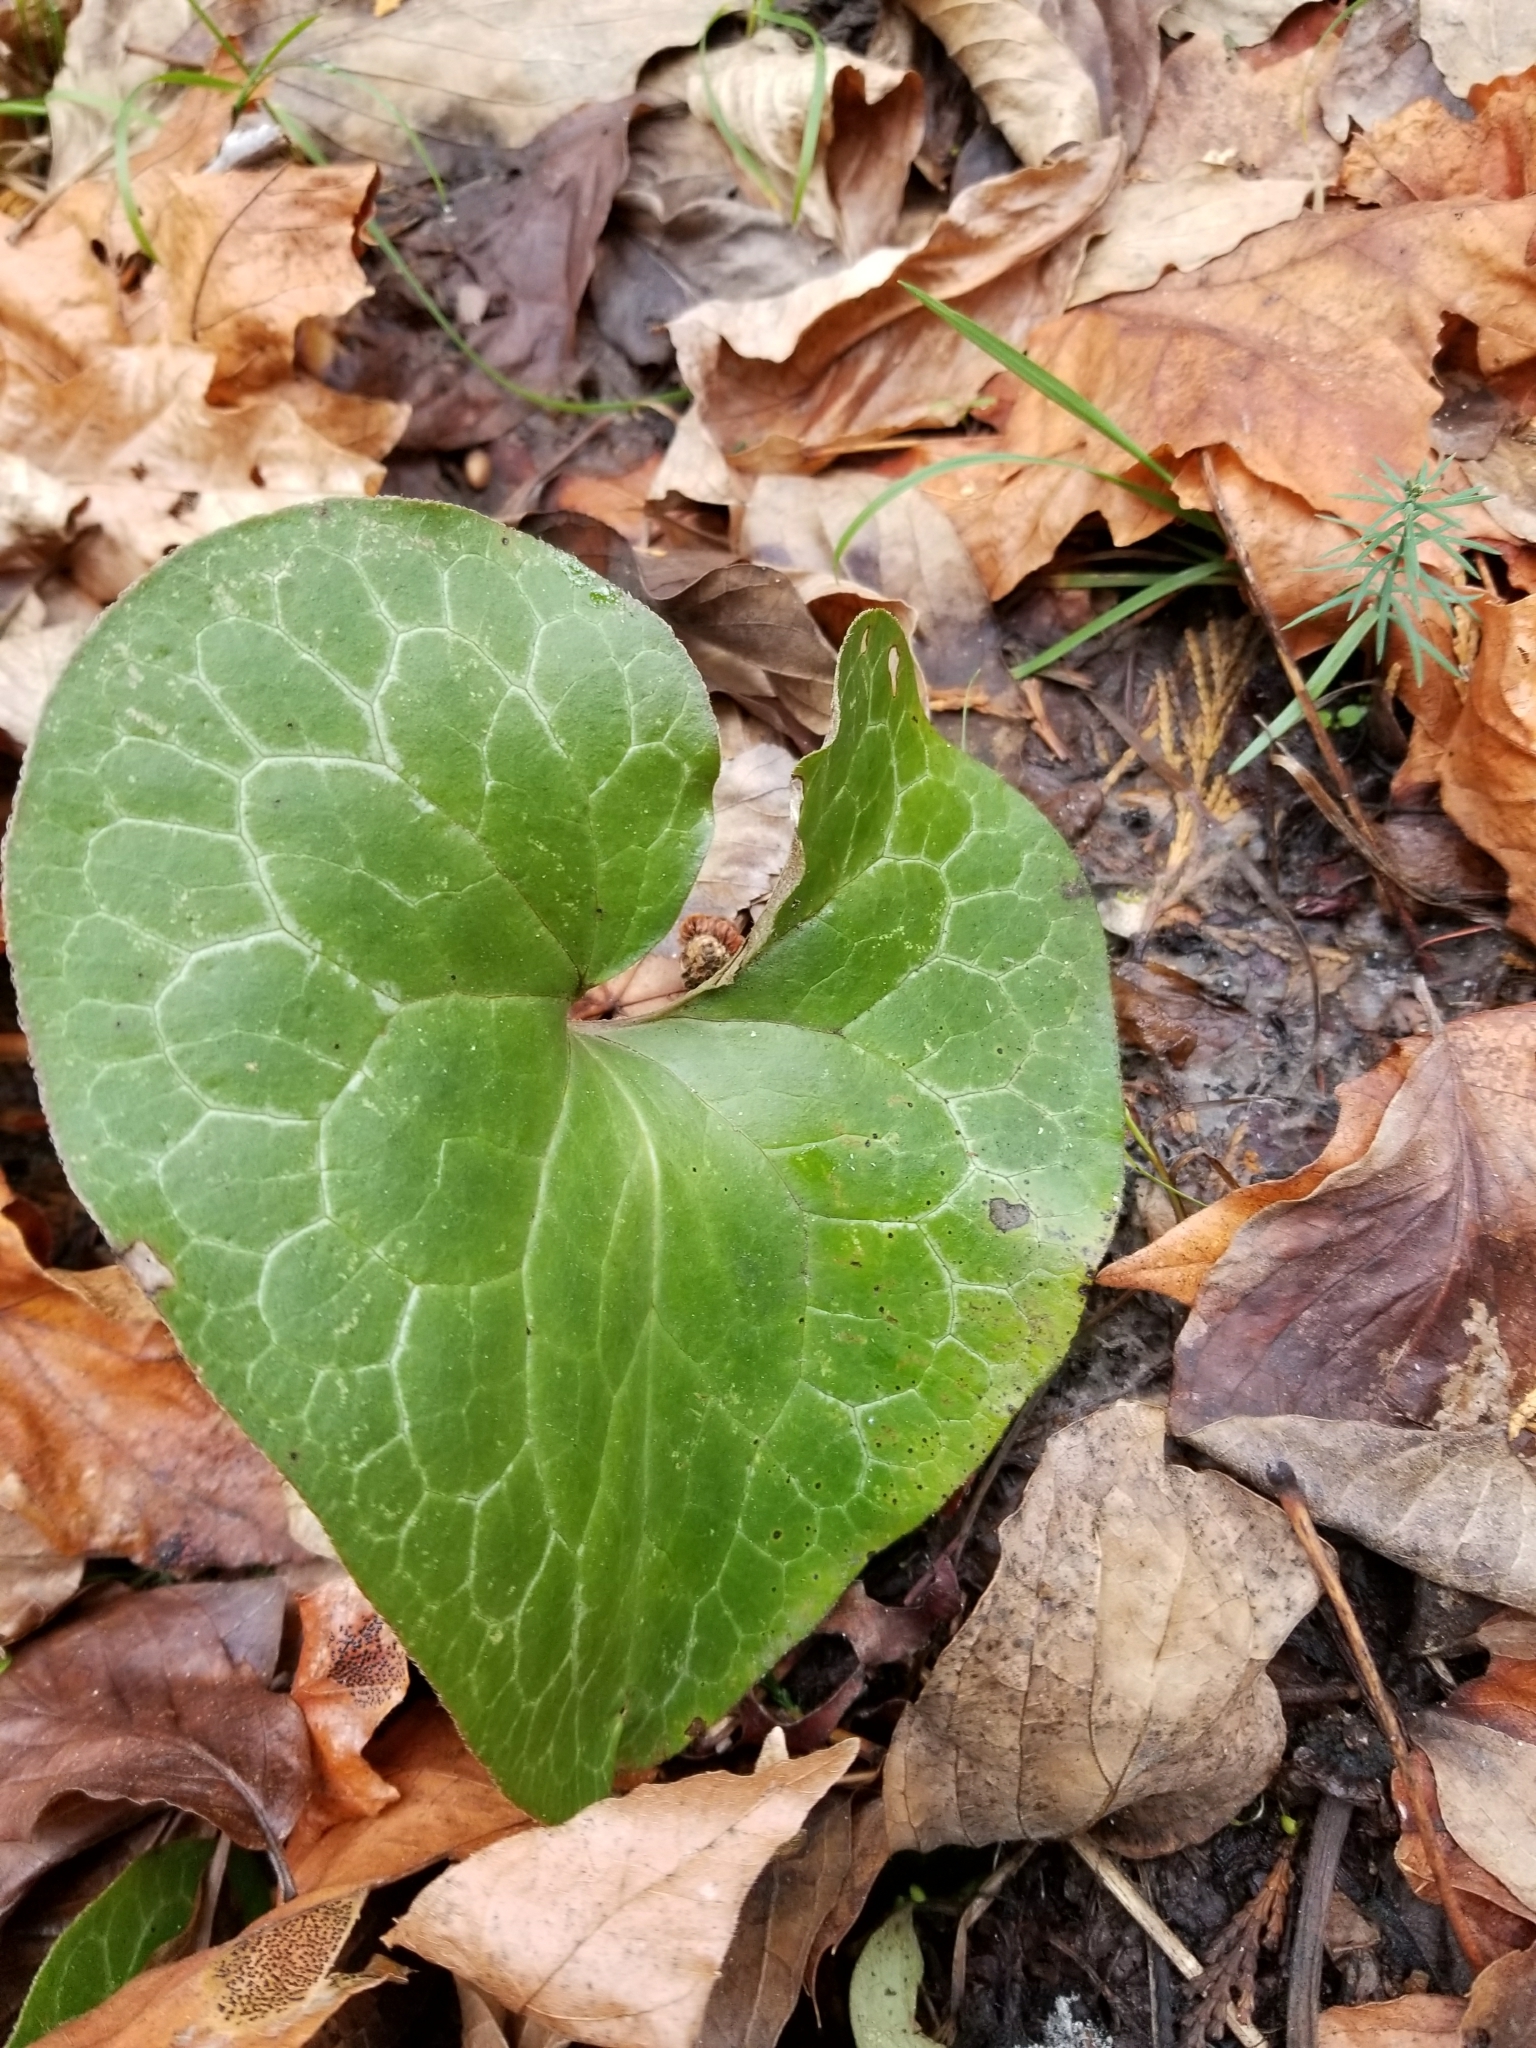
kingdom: Plantae
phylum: Tracheophyta
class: Magnoliopsida
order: Piperales
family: Aristolochiaceae
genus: Asarum
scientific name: Asarum hartwegii
